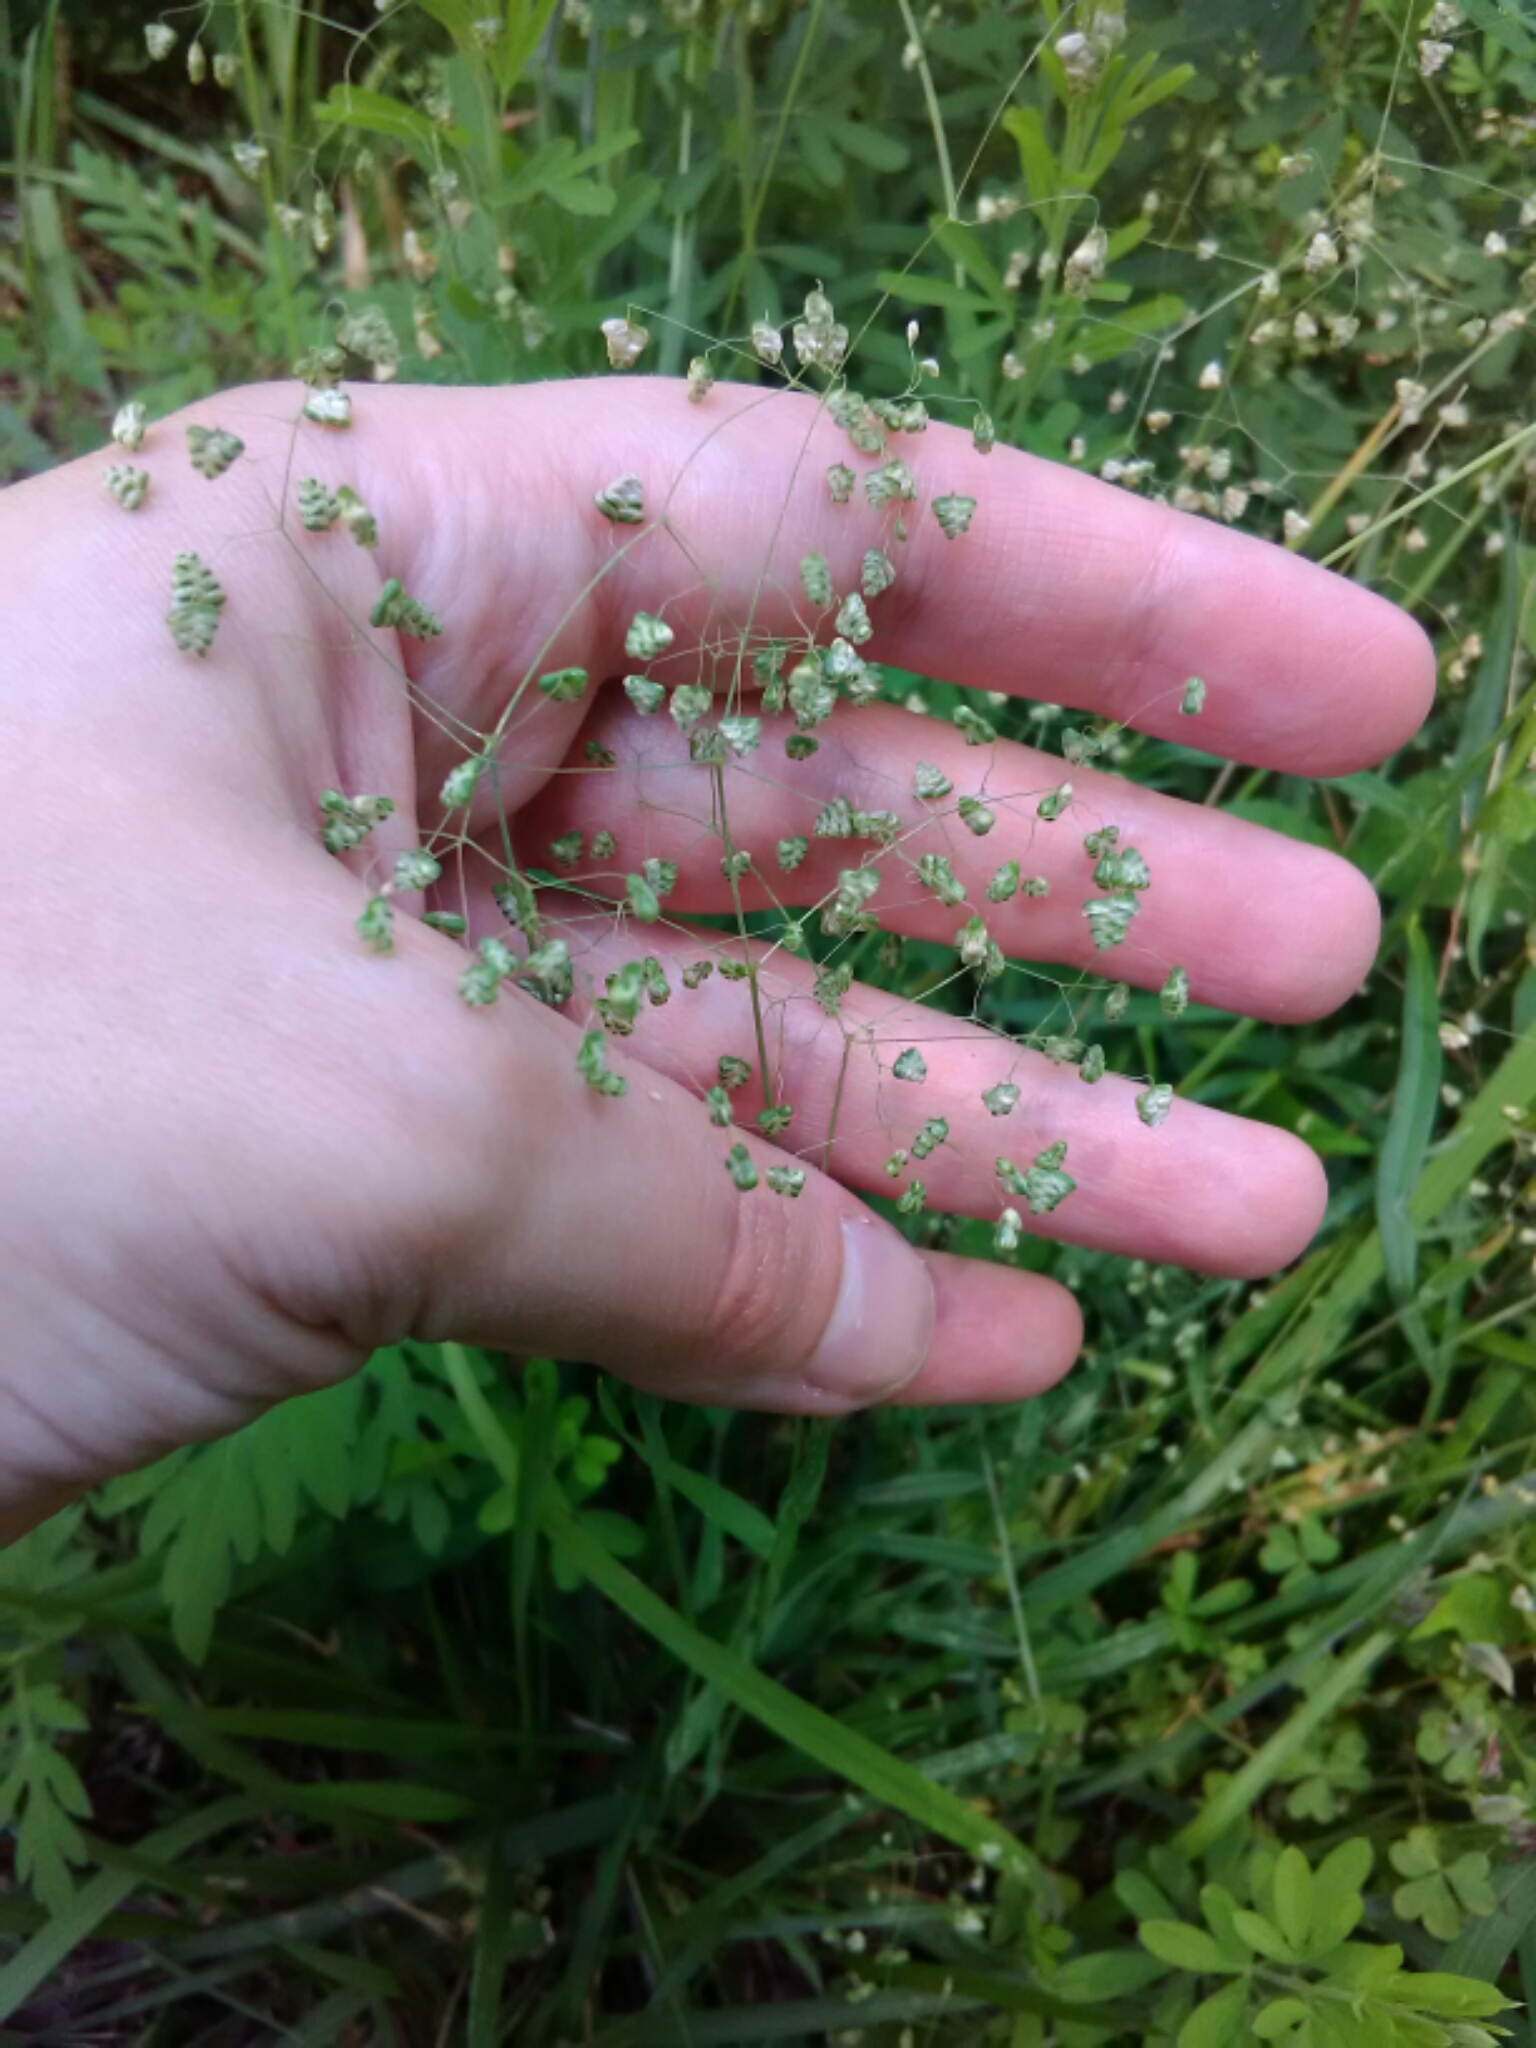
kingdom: Plantae
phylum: Tracheophyta
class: Liliopsida
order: Poales
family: Poaceae
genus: Briza
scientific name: Briza minor
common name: Lesser quaking-grass
